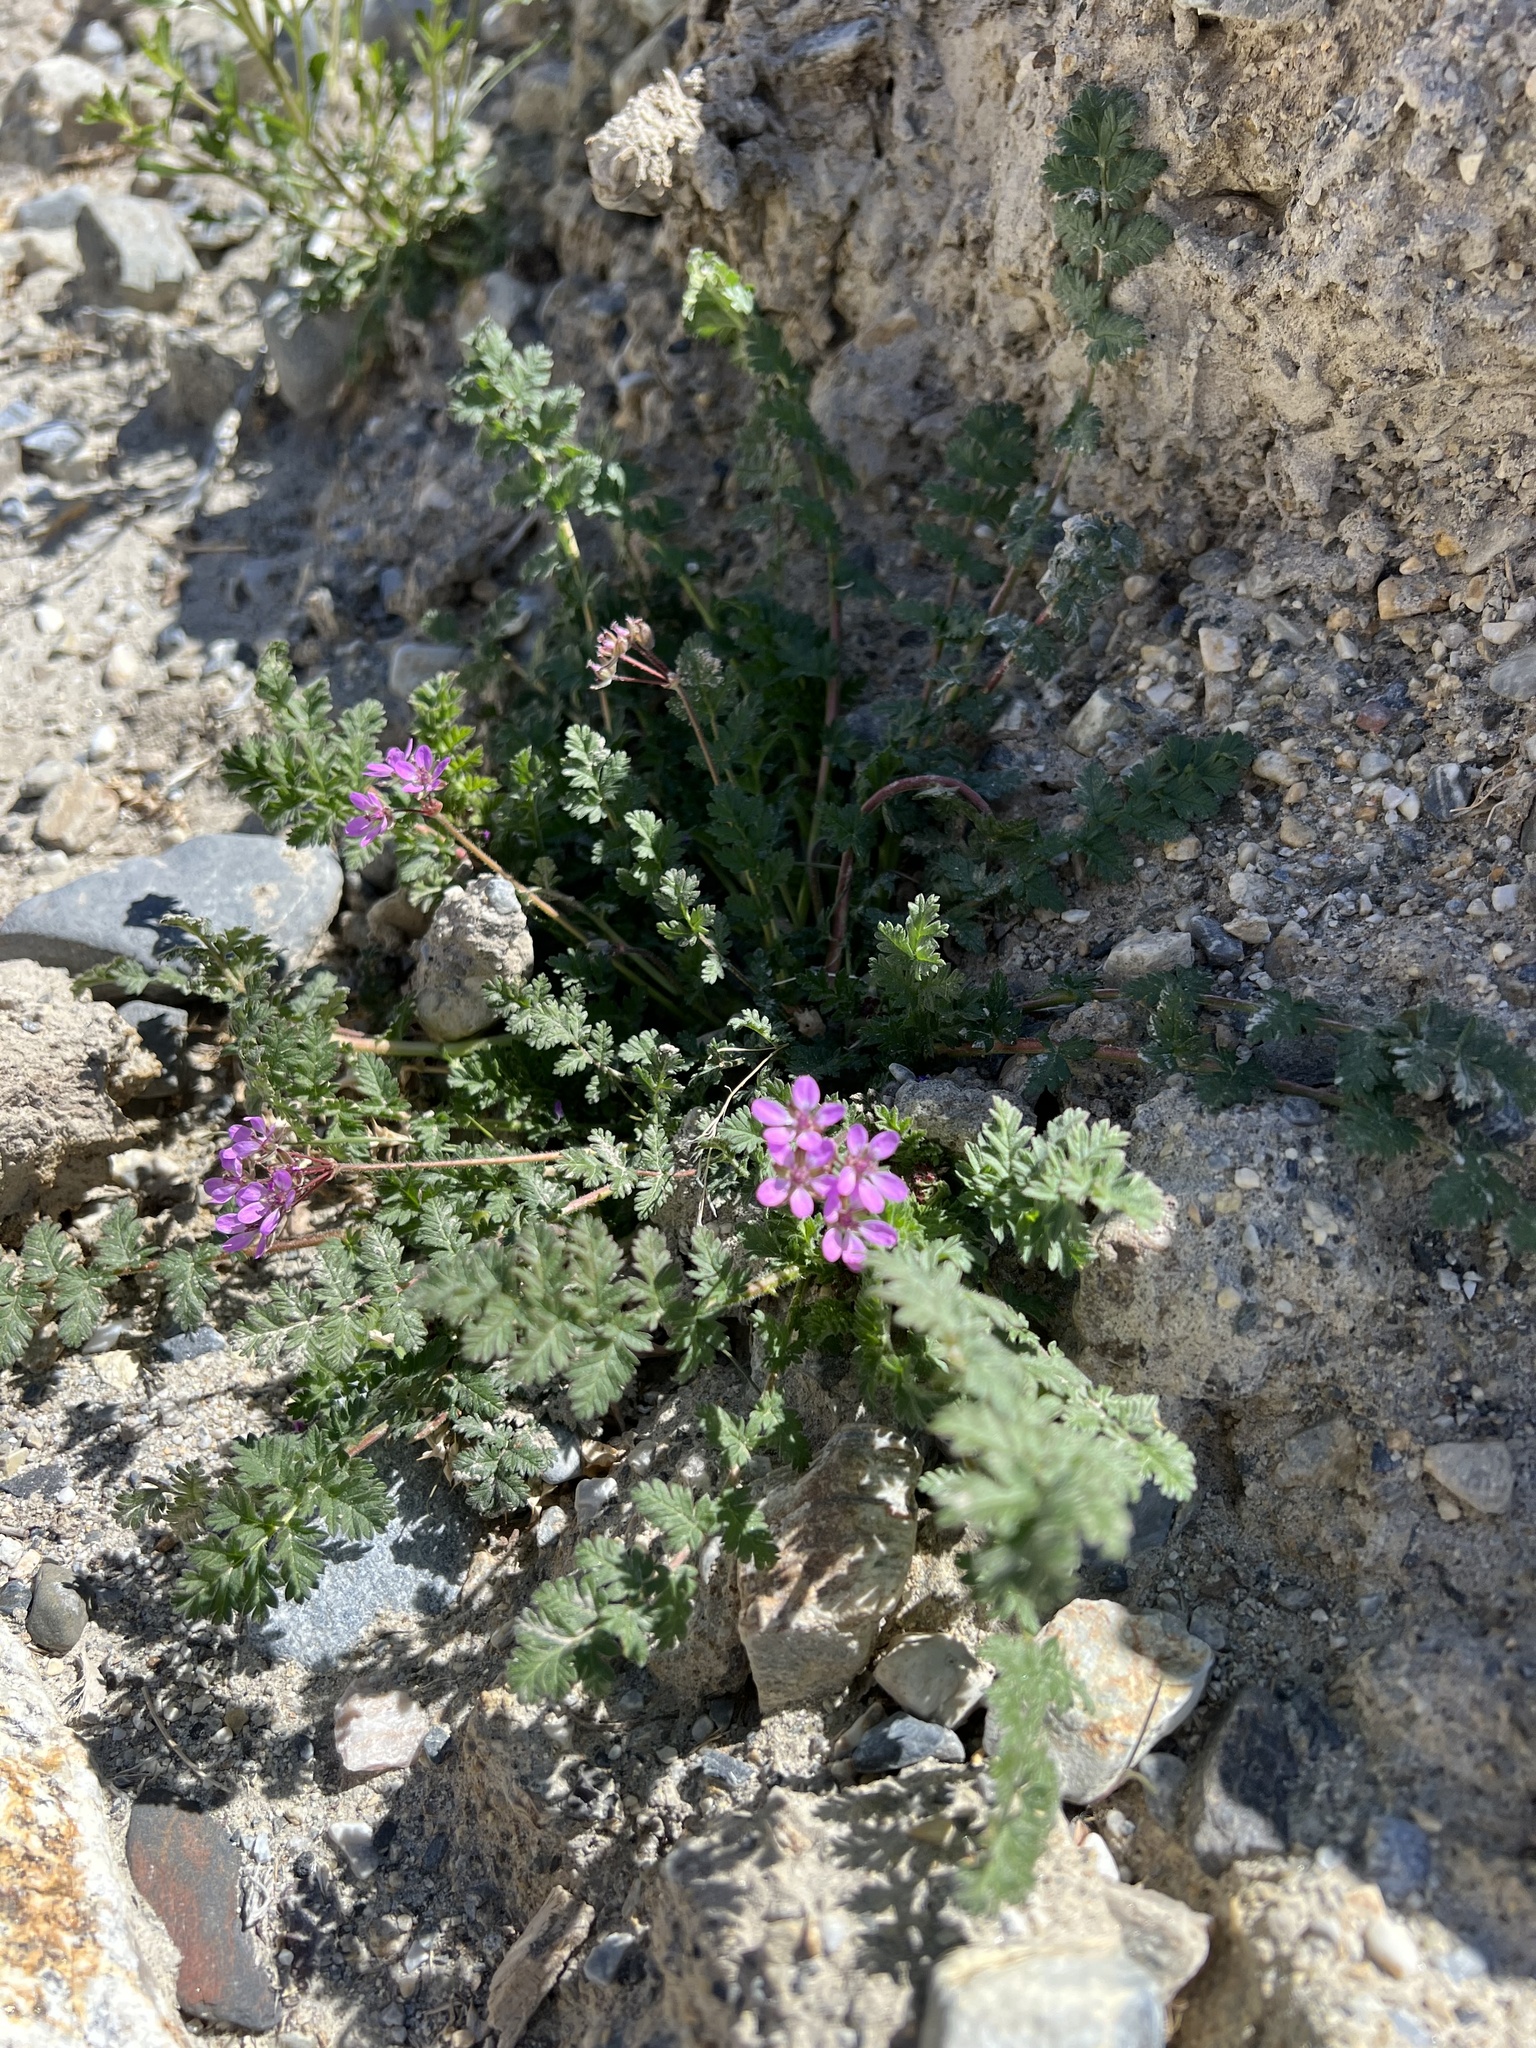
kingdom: Plantae
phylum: Tracheophyta
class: Magnoliopsida
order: Geraniales
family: Geraniaceae
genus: Erodium
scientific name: Erodium cicutarium
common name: Common stork's-bill
